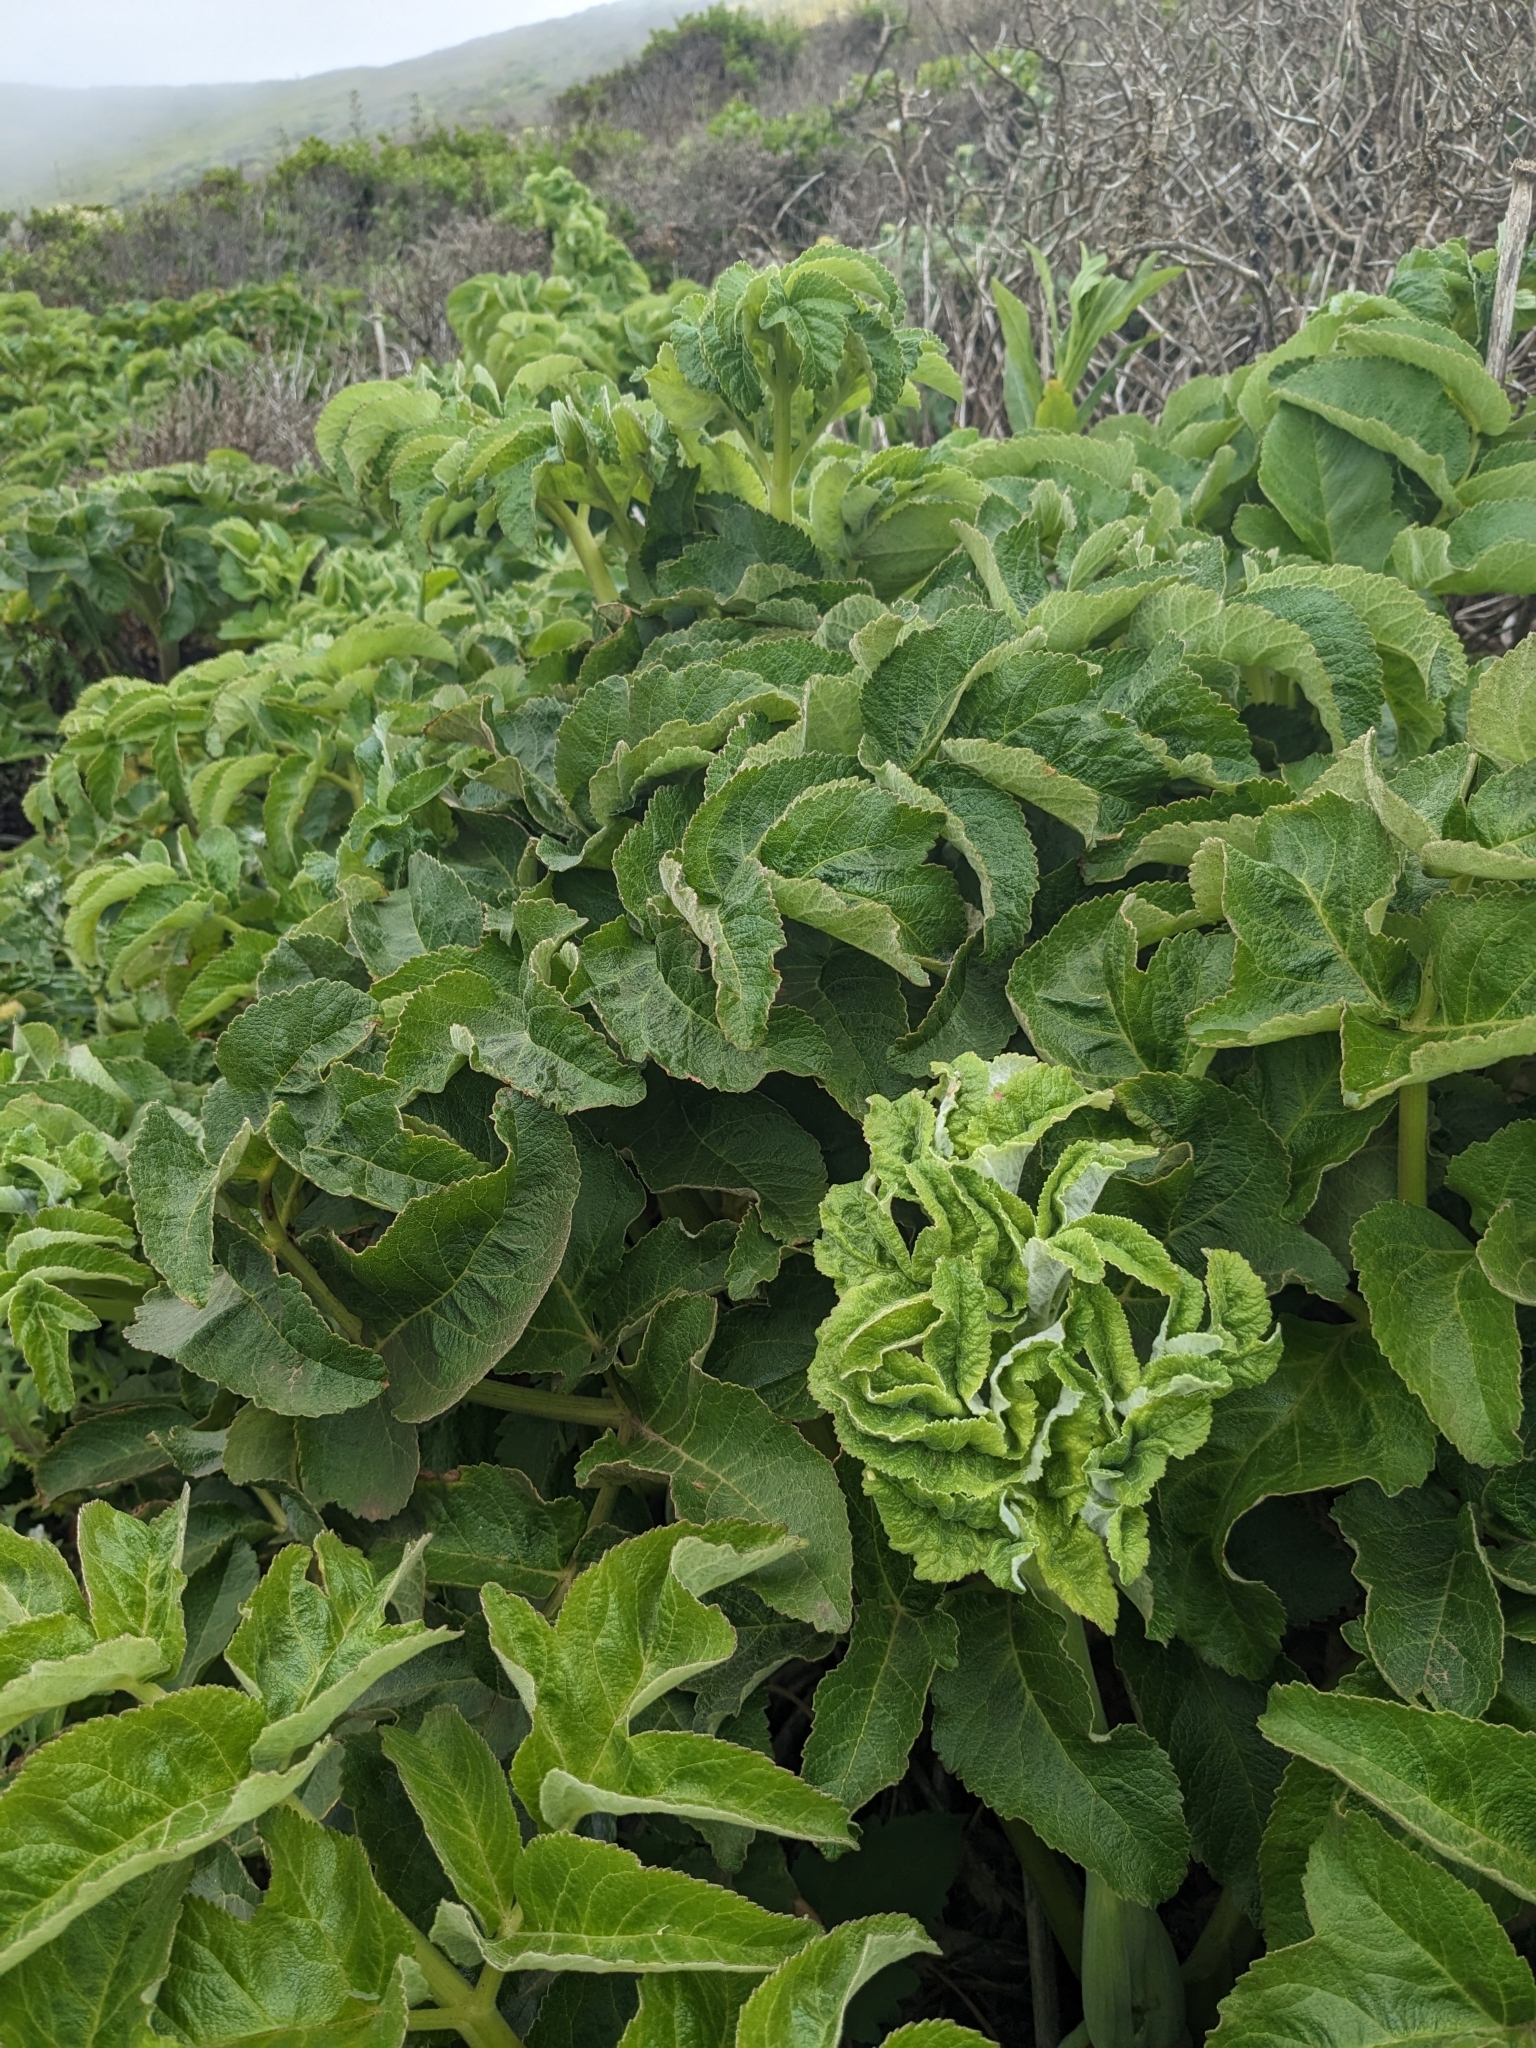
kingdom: Plantae
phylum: Tracheophyta
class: Magnoliopsida
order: Apiales
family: Apiaceae
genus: Angelica
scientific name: Angelica hendersonii
